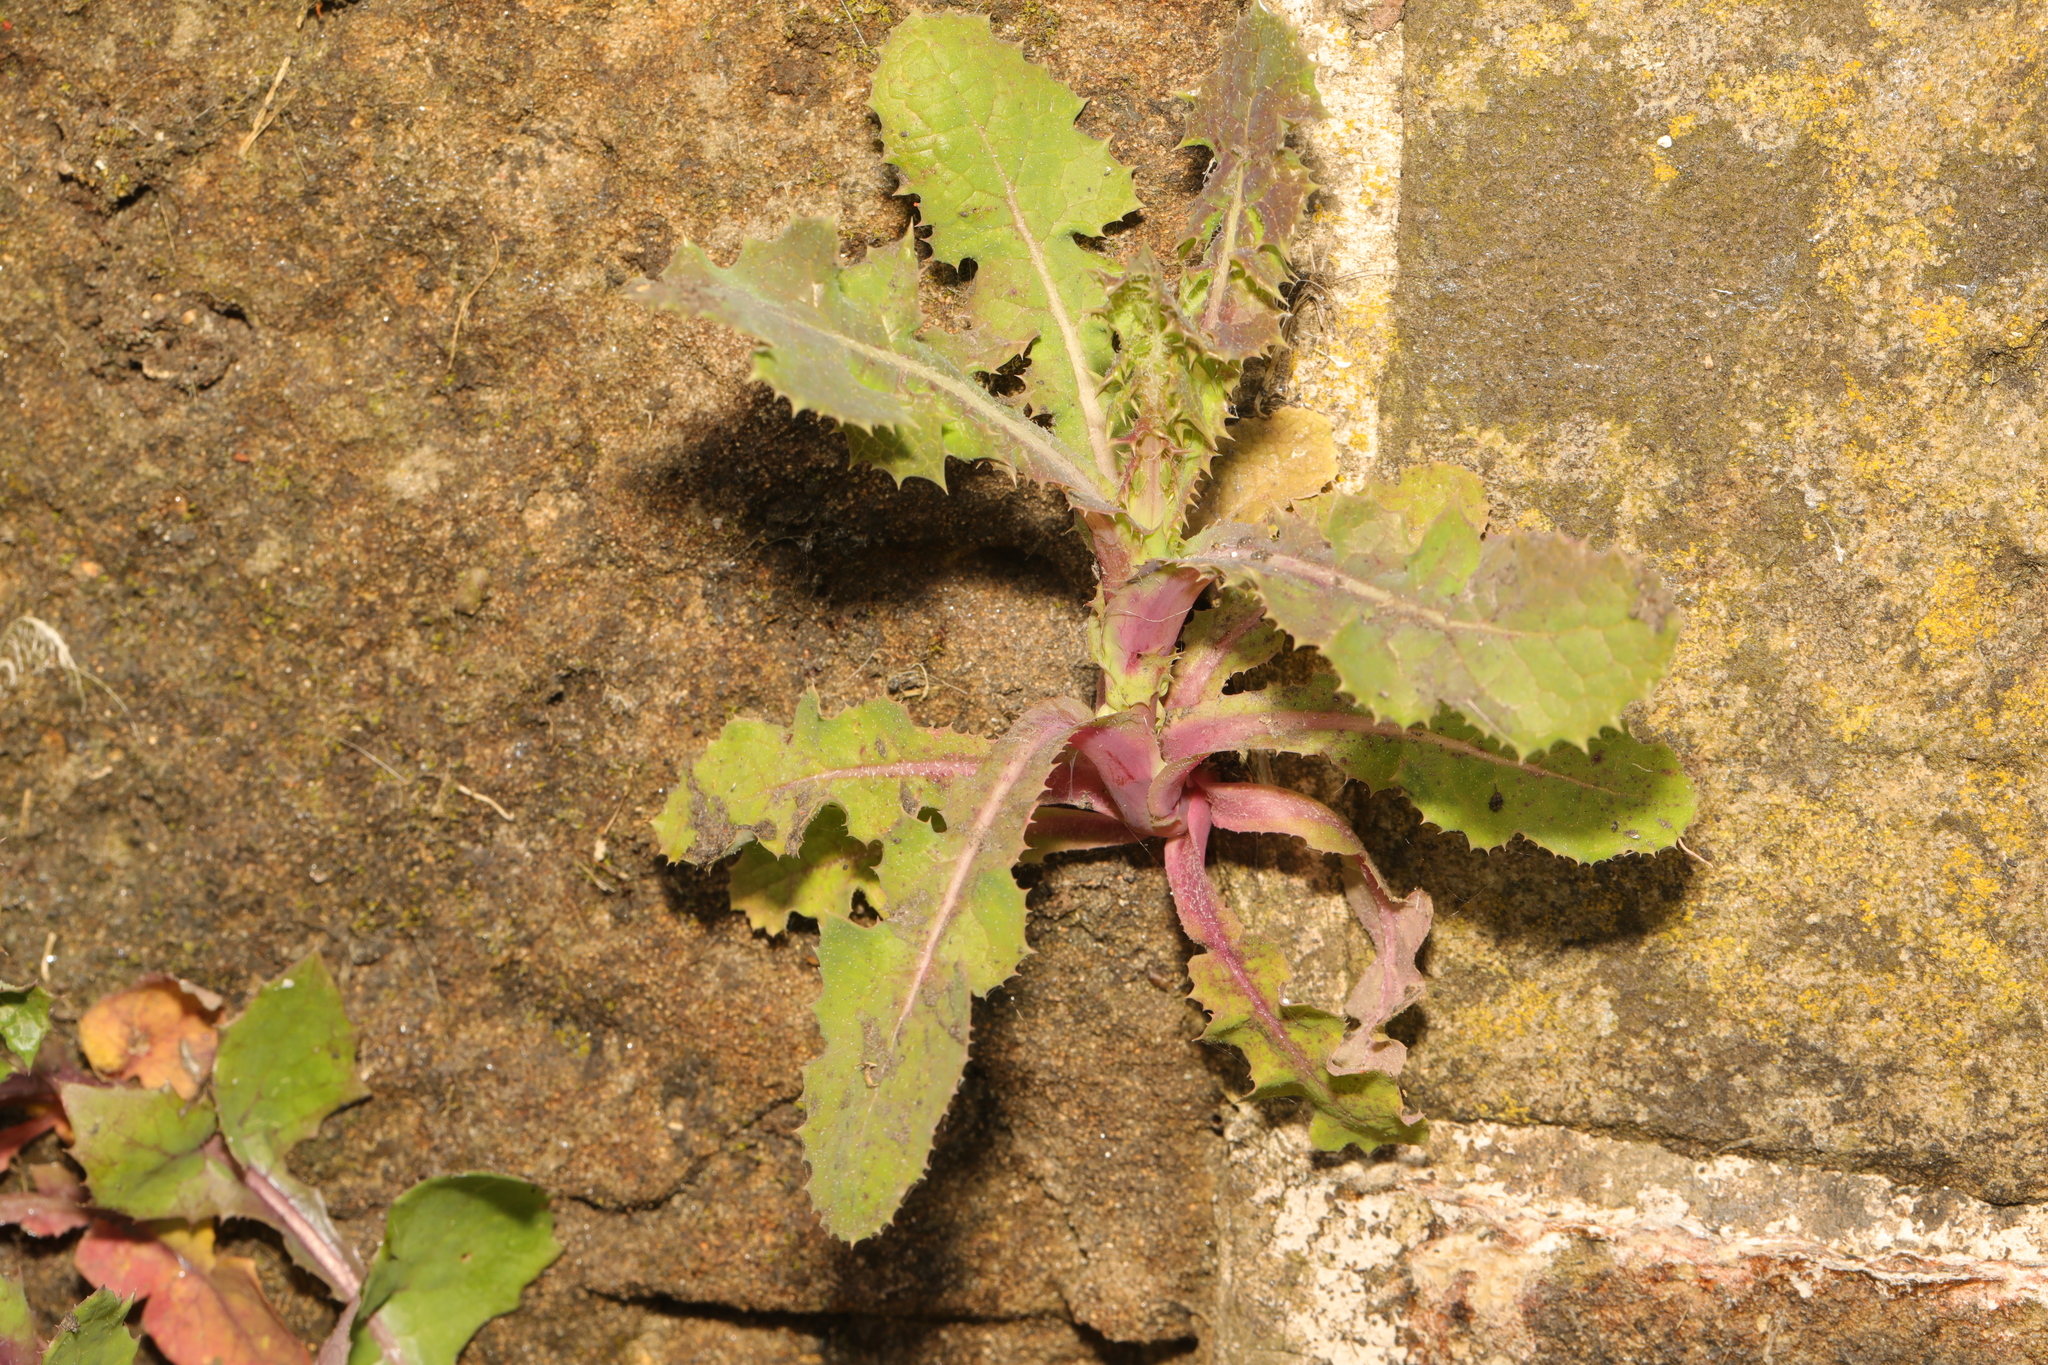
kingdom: Plantae
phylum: Tracheophyta
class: Magnoliopsida
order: Asterales
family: Asteraceae
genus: Sonchus
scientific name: Sonchus asper
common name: Prickly sow-thistle
